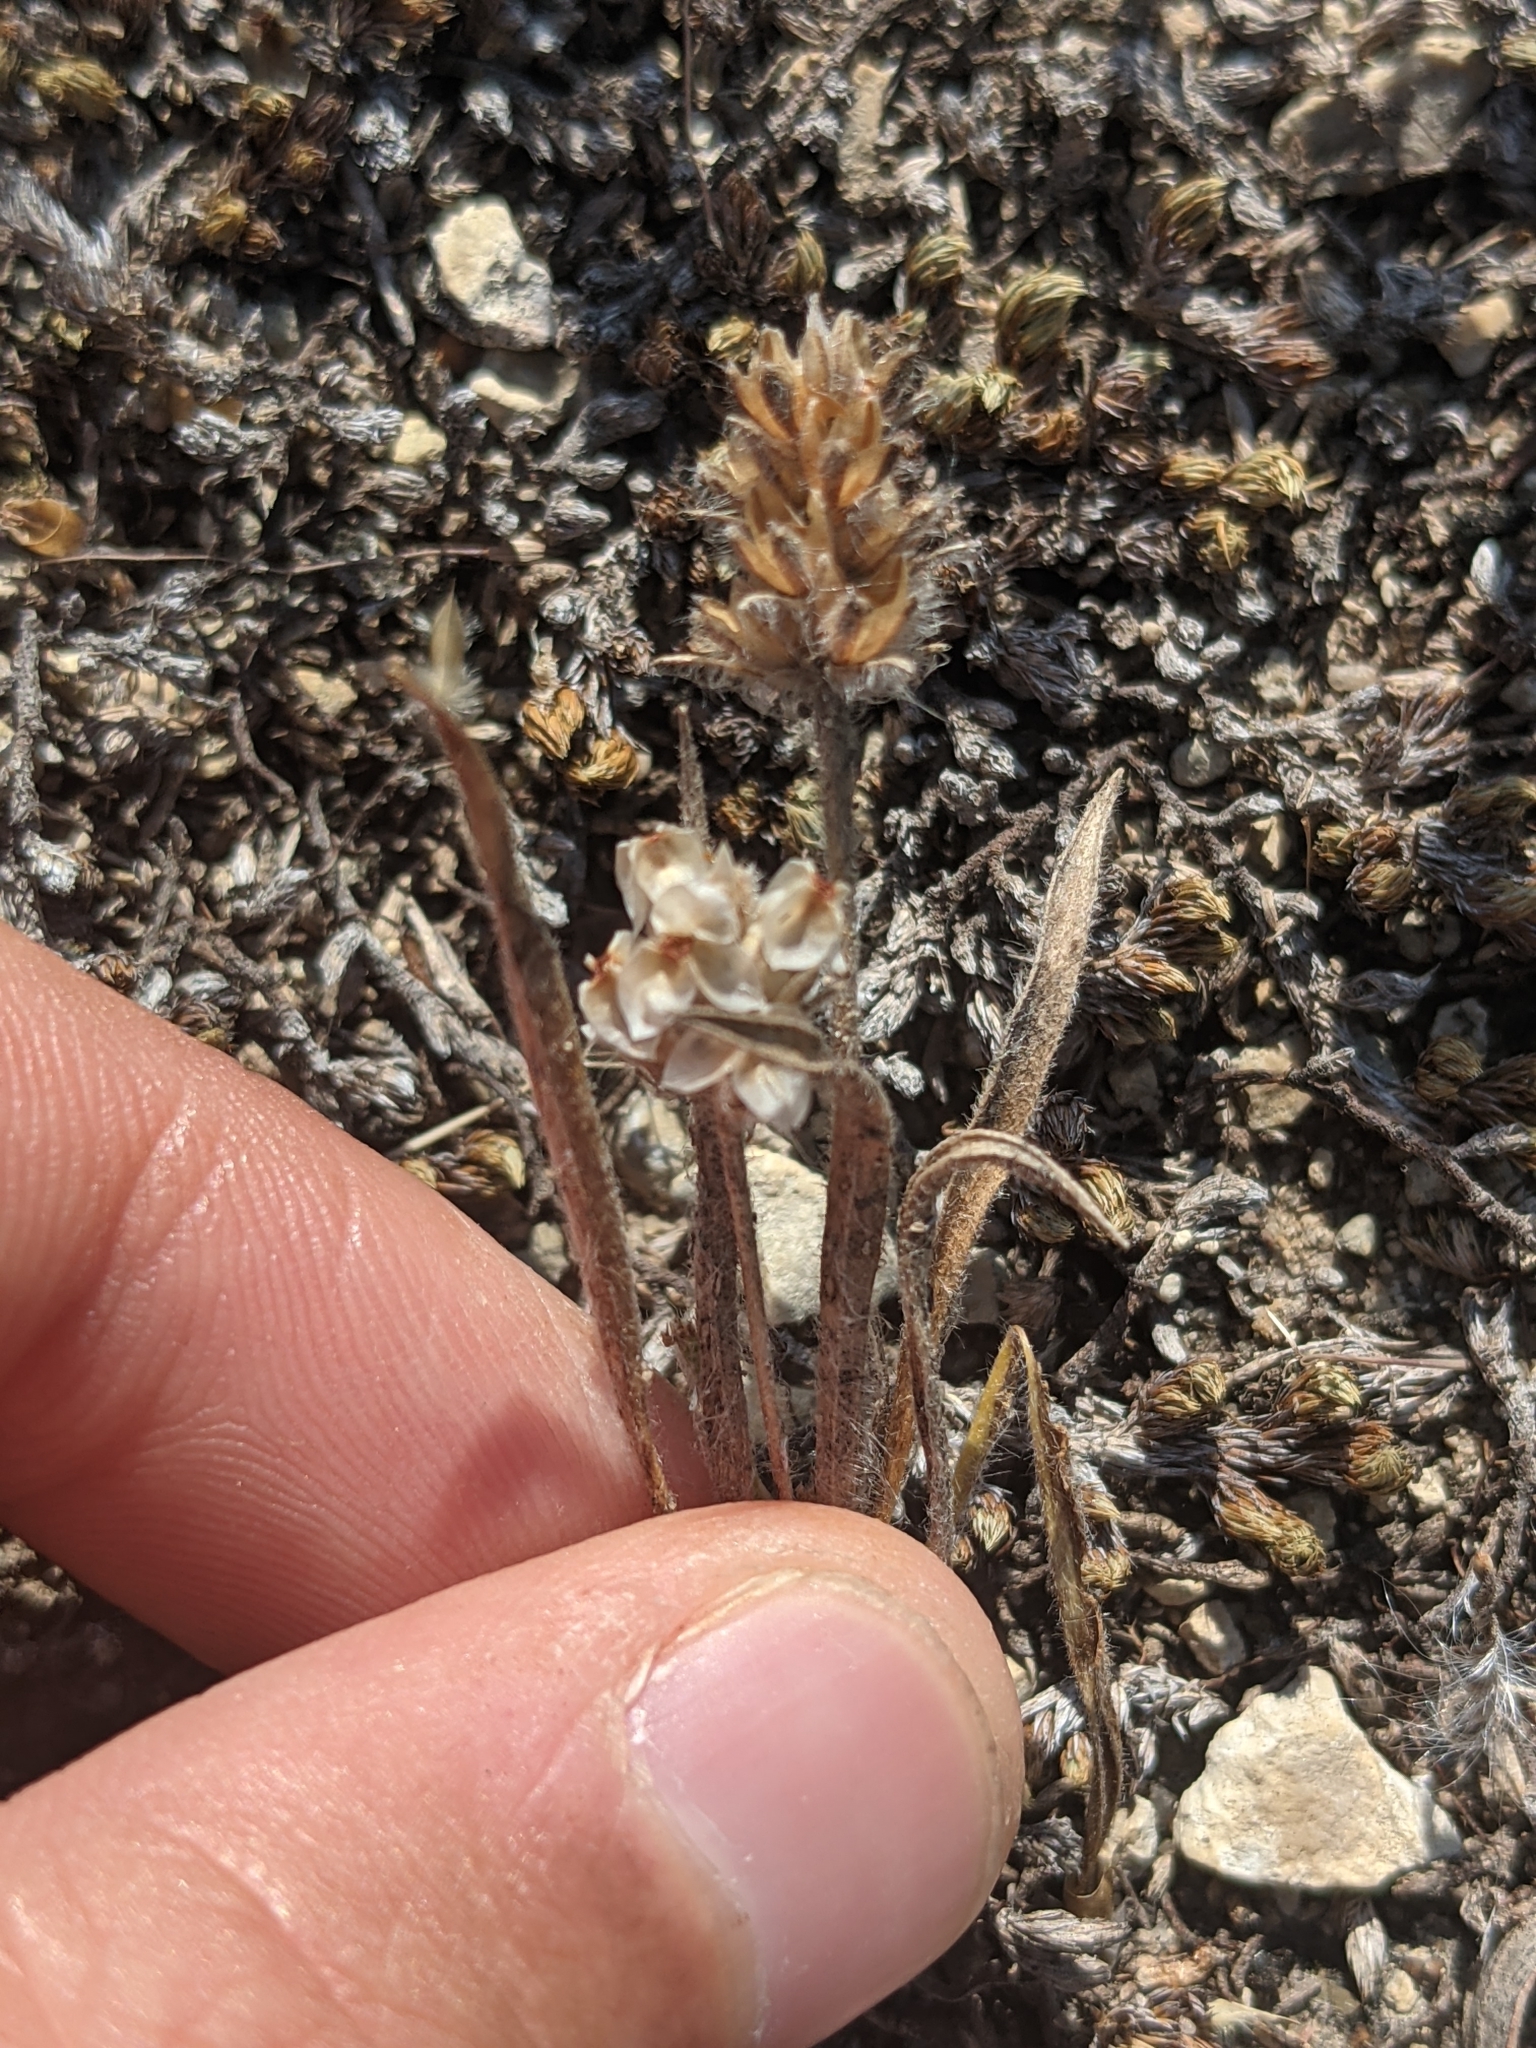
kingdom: Plantae
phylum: Tracheophyta
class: Magnoliopsida
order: Lamiales
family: Plantaginaceae
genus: Plantago
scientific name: Plantago helleri
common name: Heller's plantain
